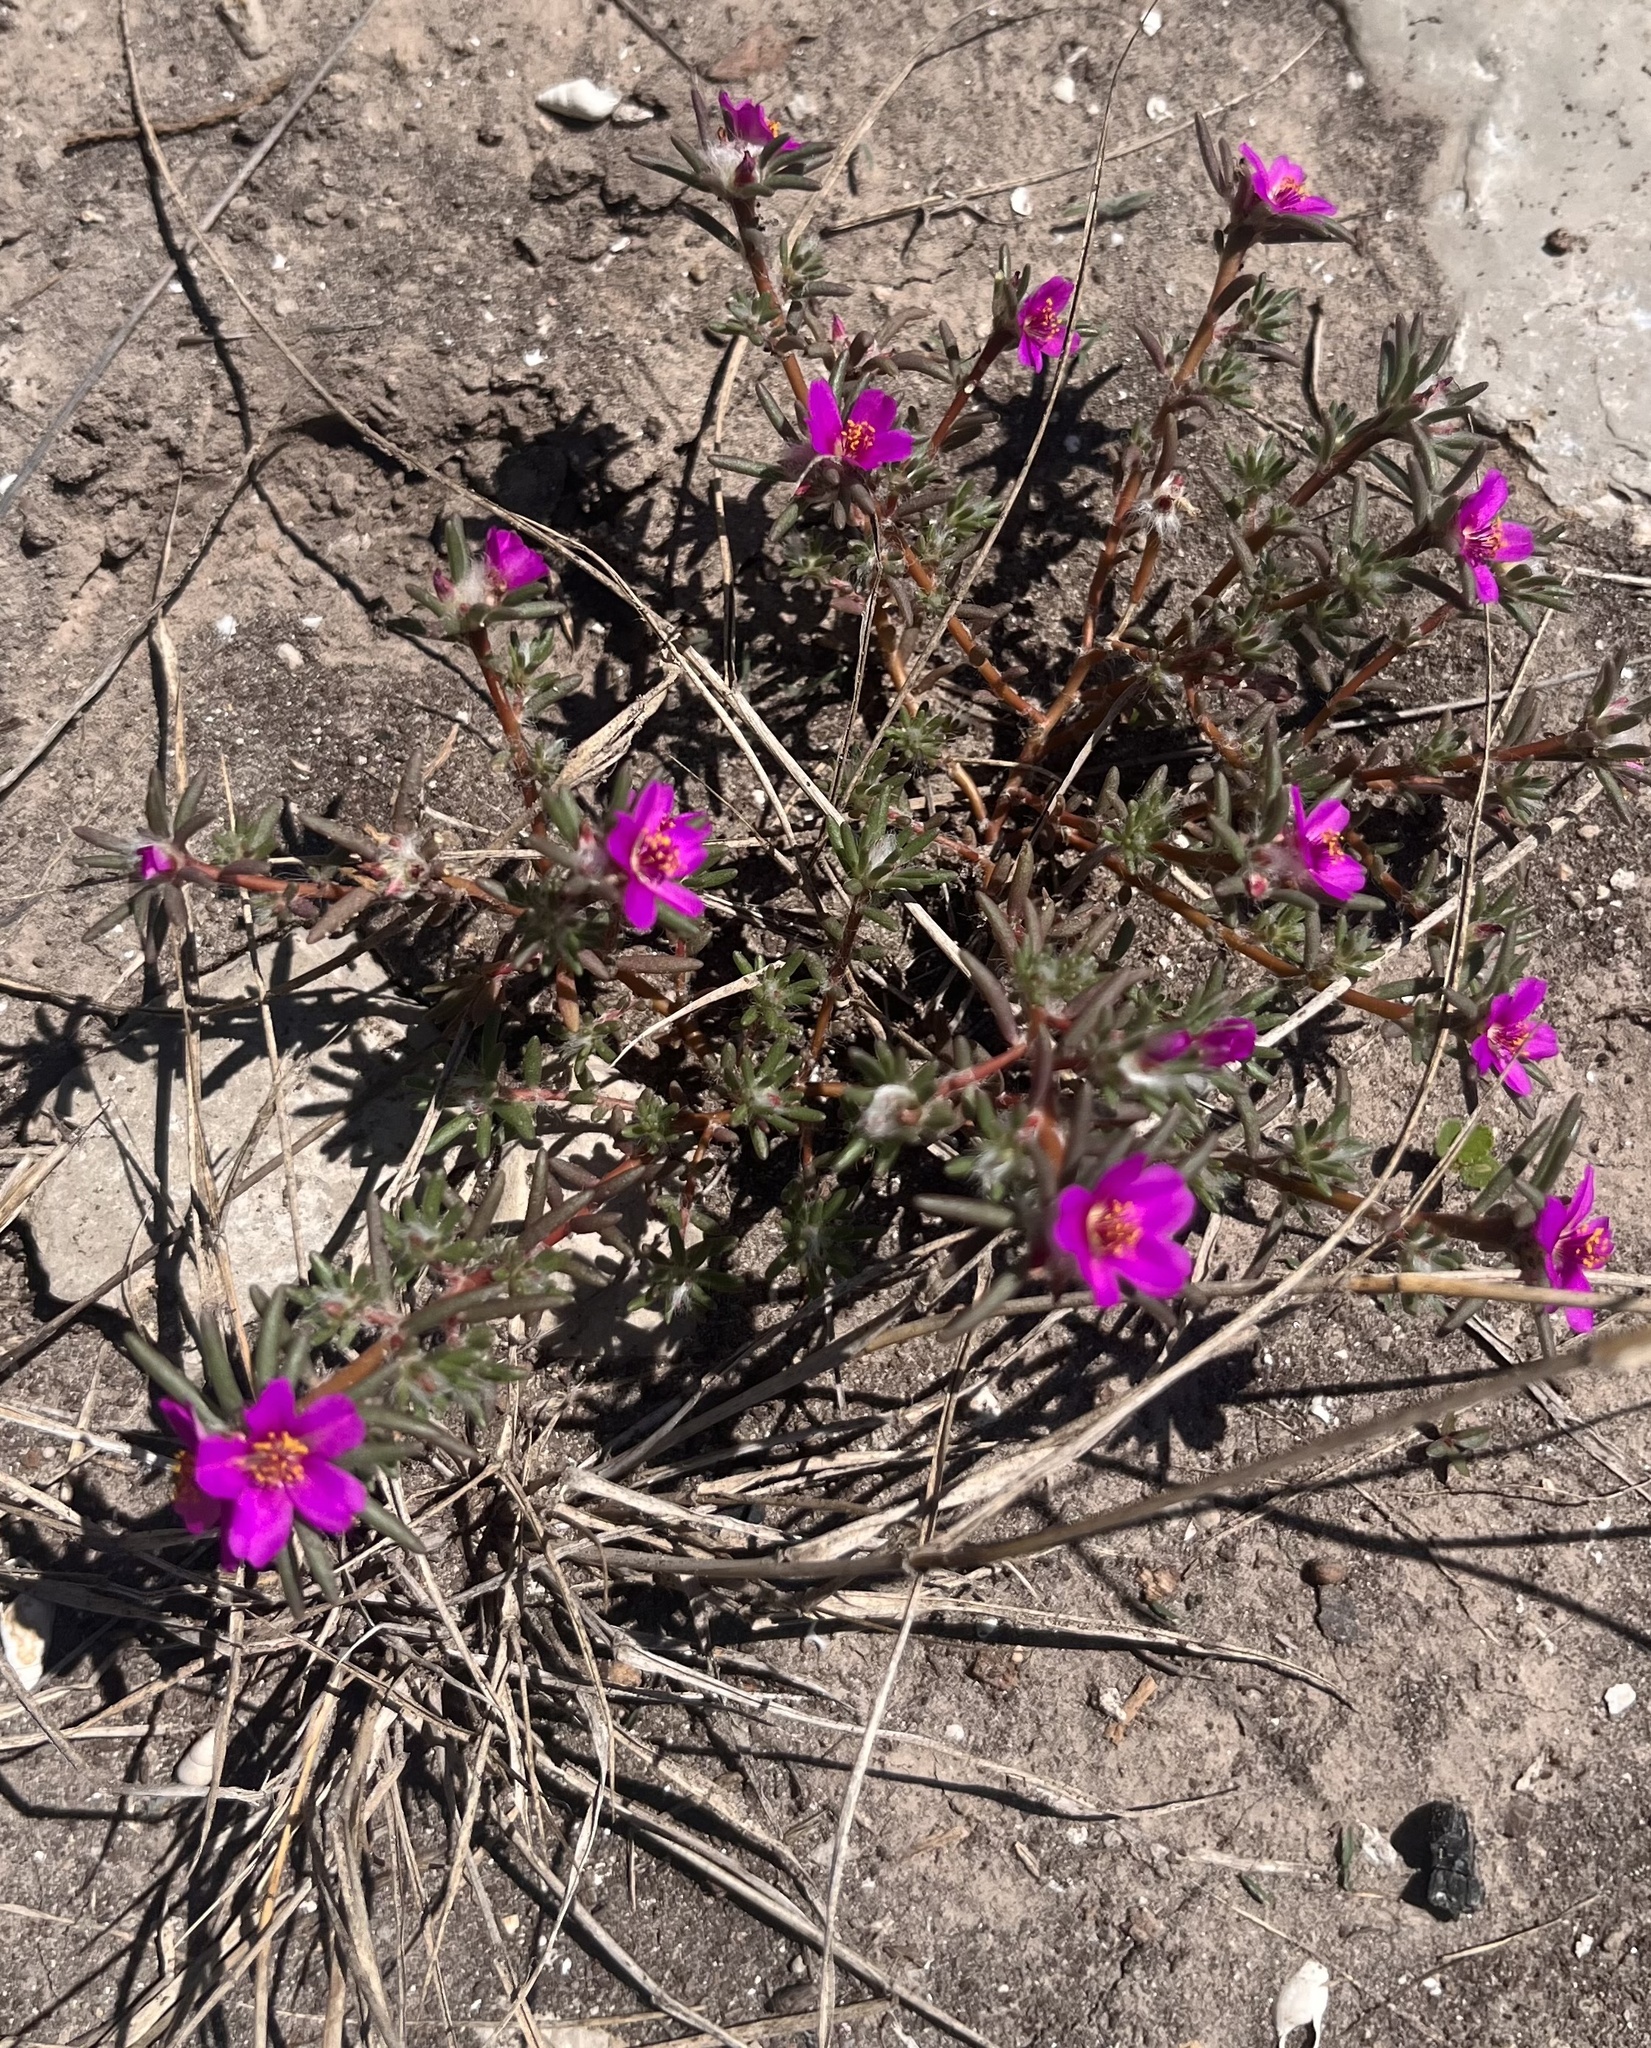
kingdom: Plantae
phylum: Tracheophyta
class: Magnoliopsida
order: Caryophyllales
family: Portulacaceae
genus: Portulaca
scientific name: Portulaca pilosa
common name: Kiss me quick
